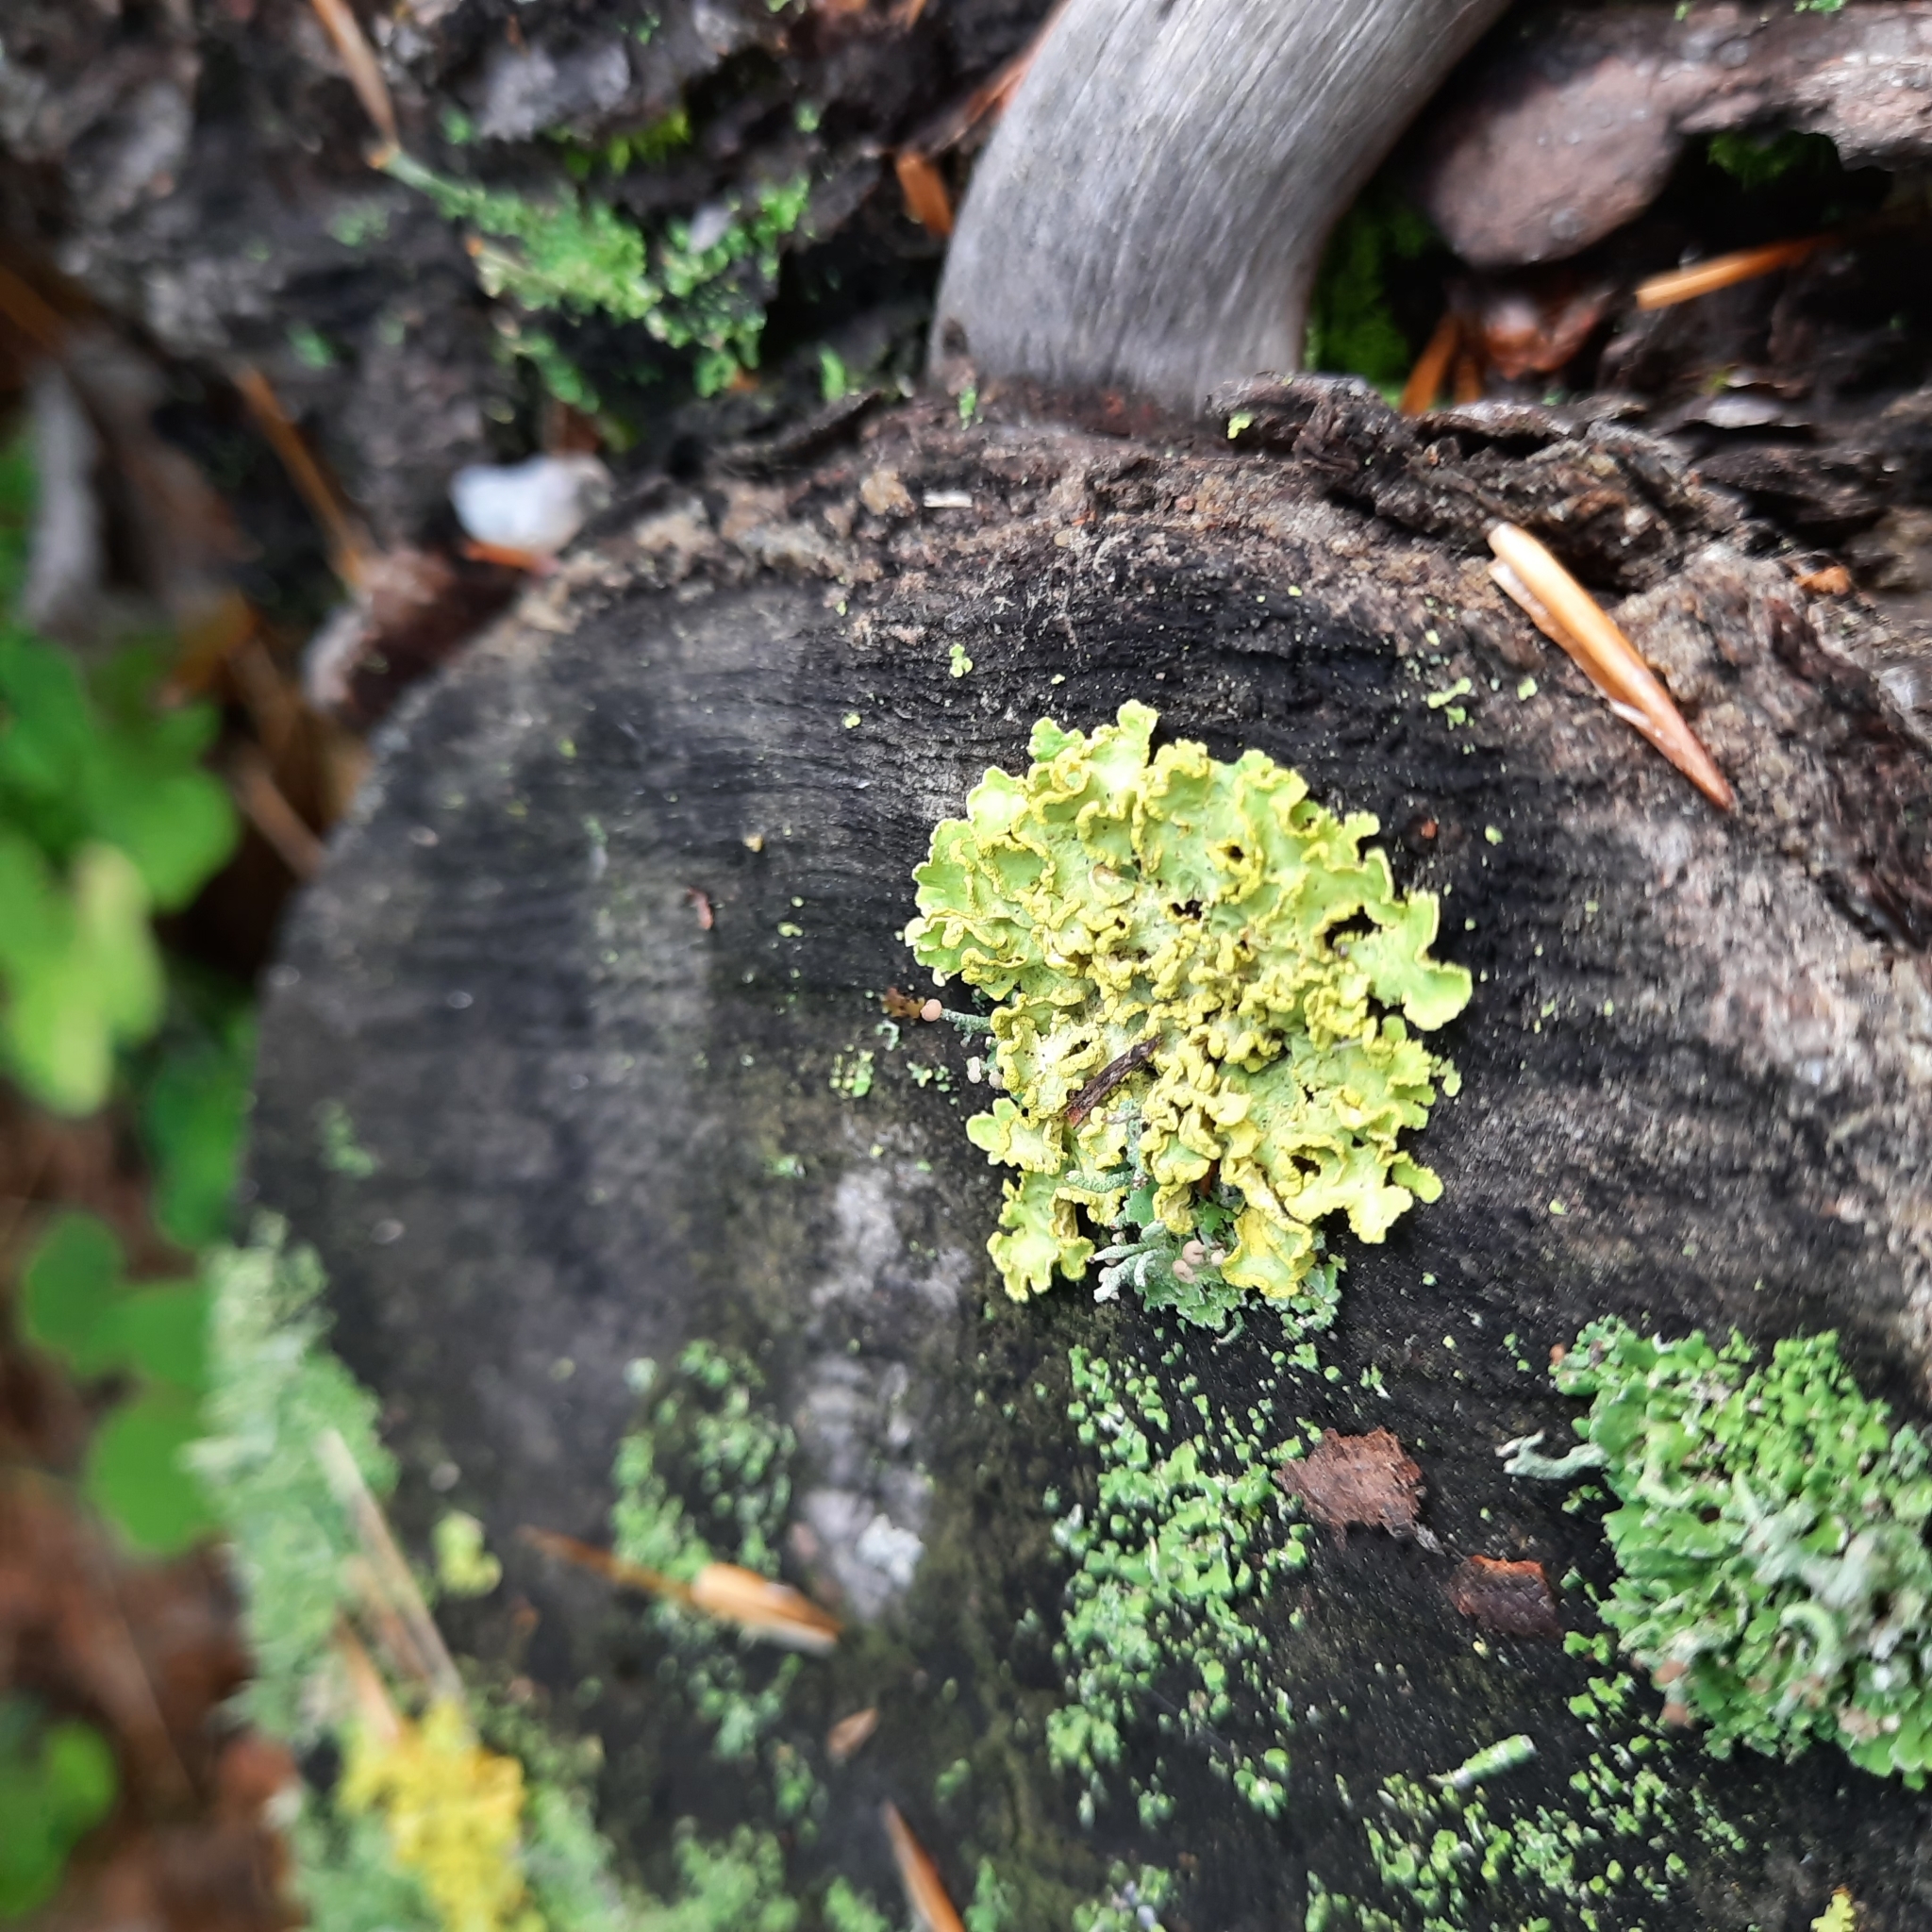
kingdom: Fungi
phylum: Ascomycota
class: Lecanoromycetes
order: Lecanorales
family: Parmeliaceae
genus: Vulpicida
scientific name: Vulpicida pinastri
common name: Powdered sunshine lichen
